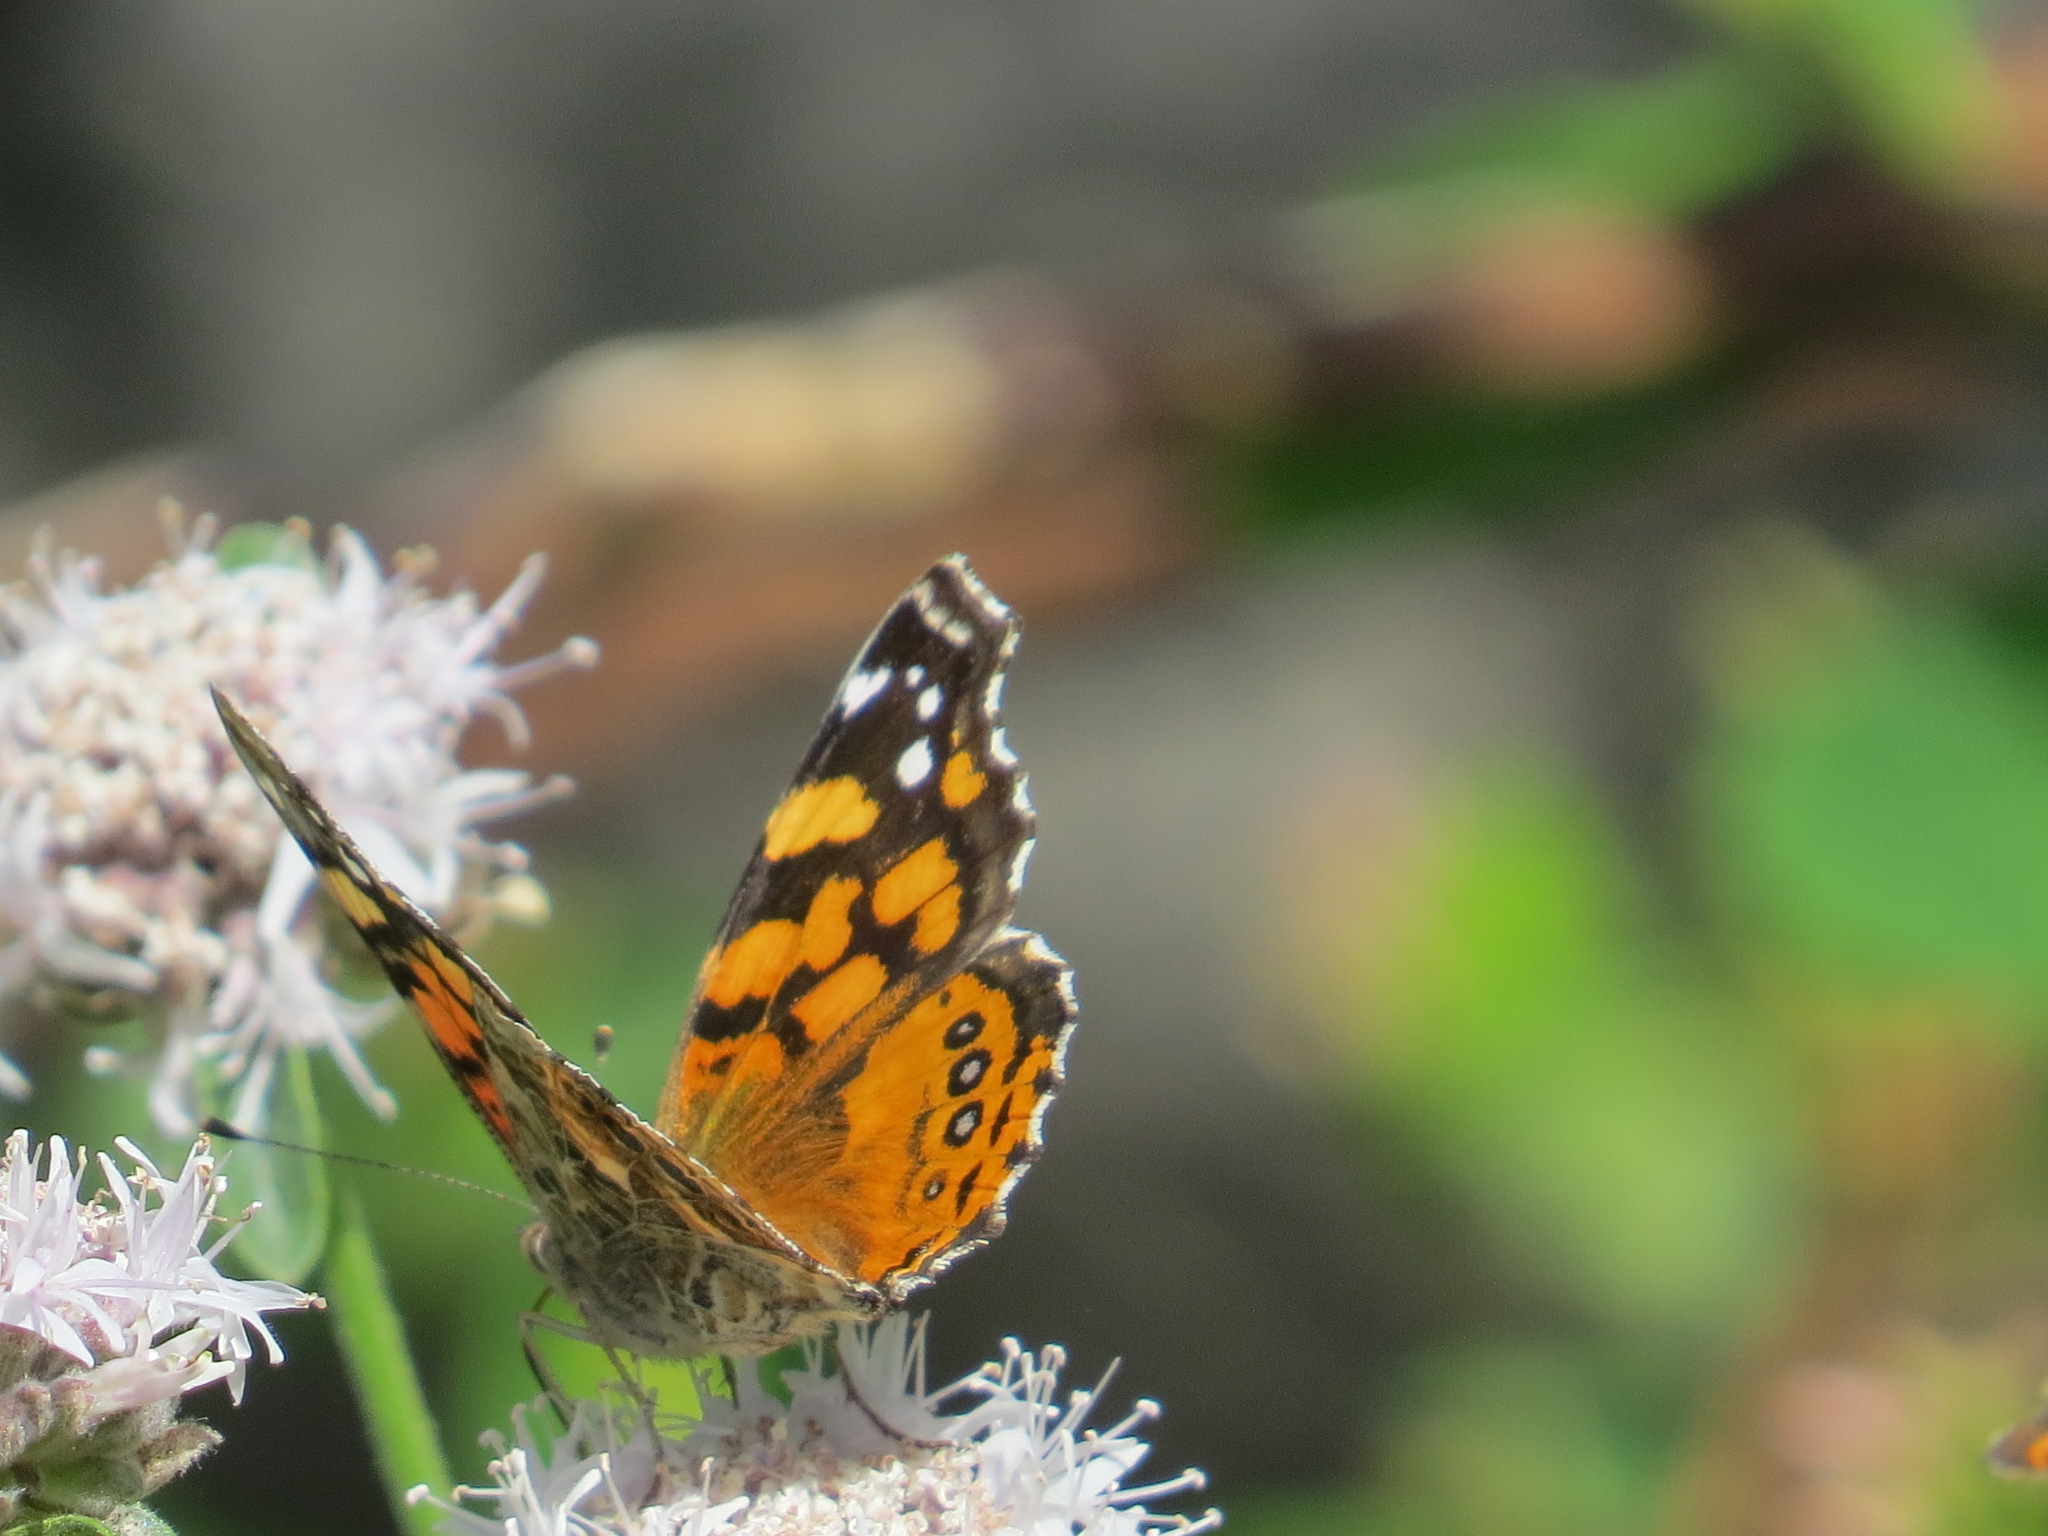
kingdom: Animalia
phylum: Arthropoda
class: Insecta
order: Lepidoptera
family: Nymphalidae
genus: Vanessa
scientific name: Vanessa annabella
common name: West coast lady
